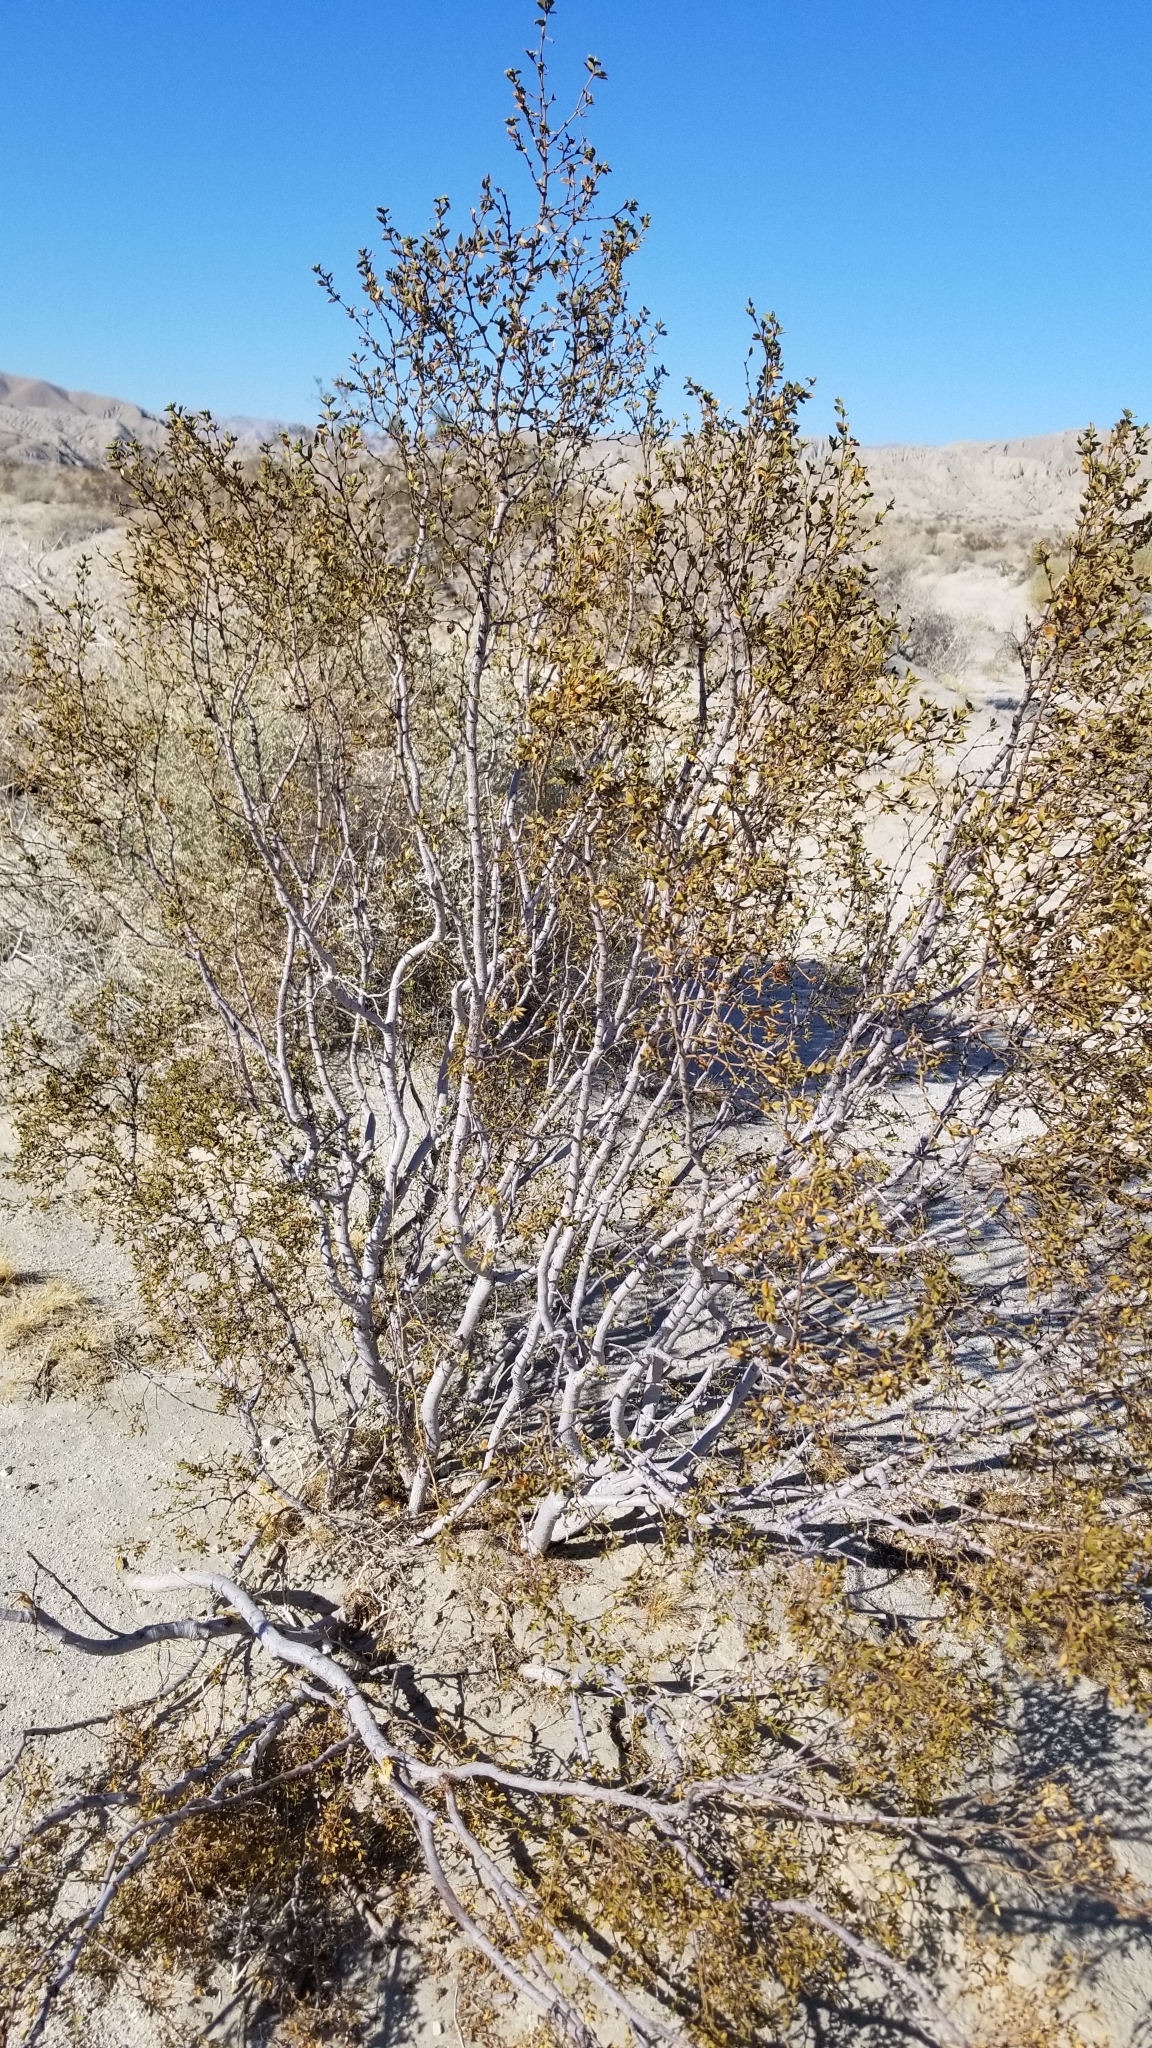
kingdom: Plantae
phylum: Tracheophyta
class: Magnoliopsida
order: Zygophyllales
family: Zygophyllaceae
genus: Larrea
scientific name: Larrea tridentata
